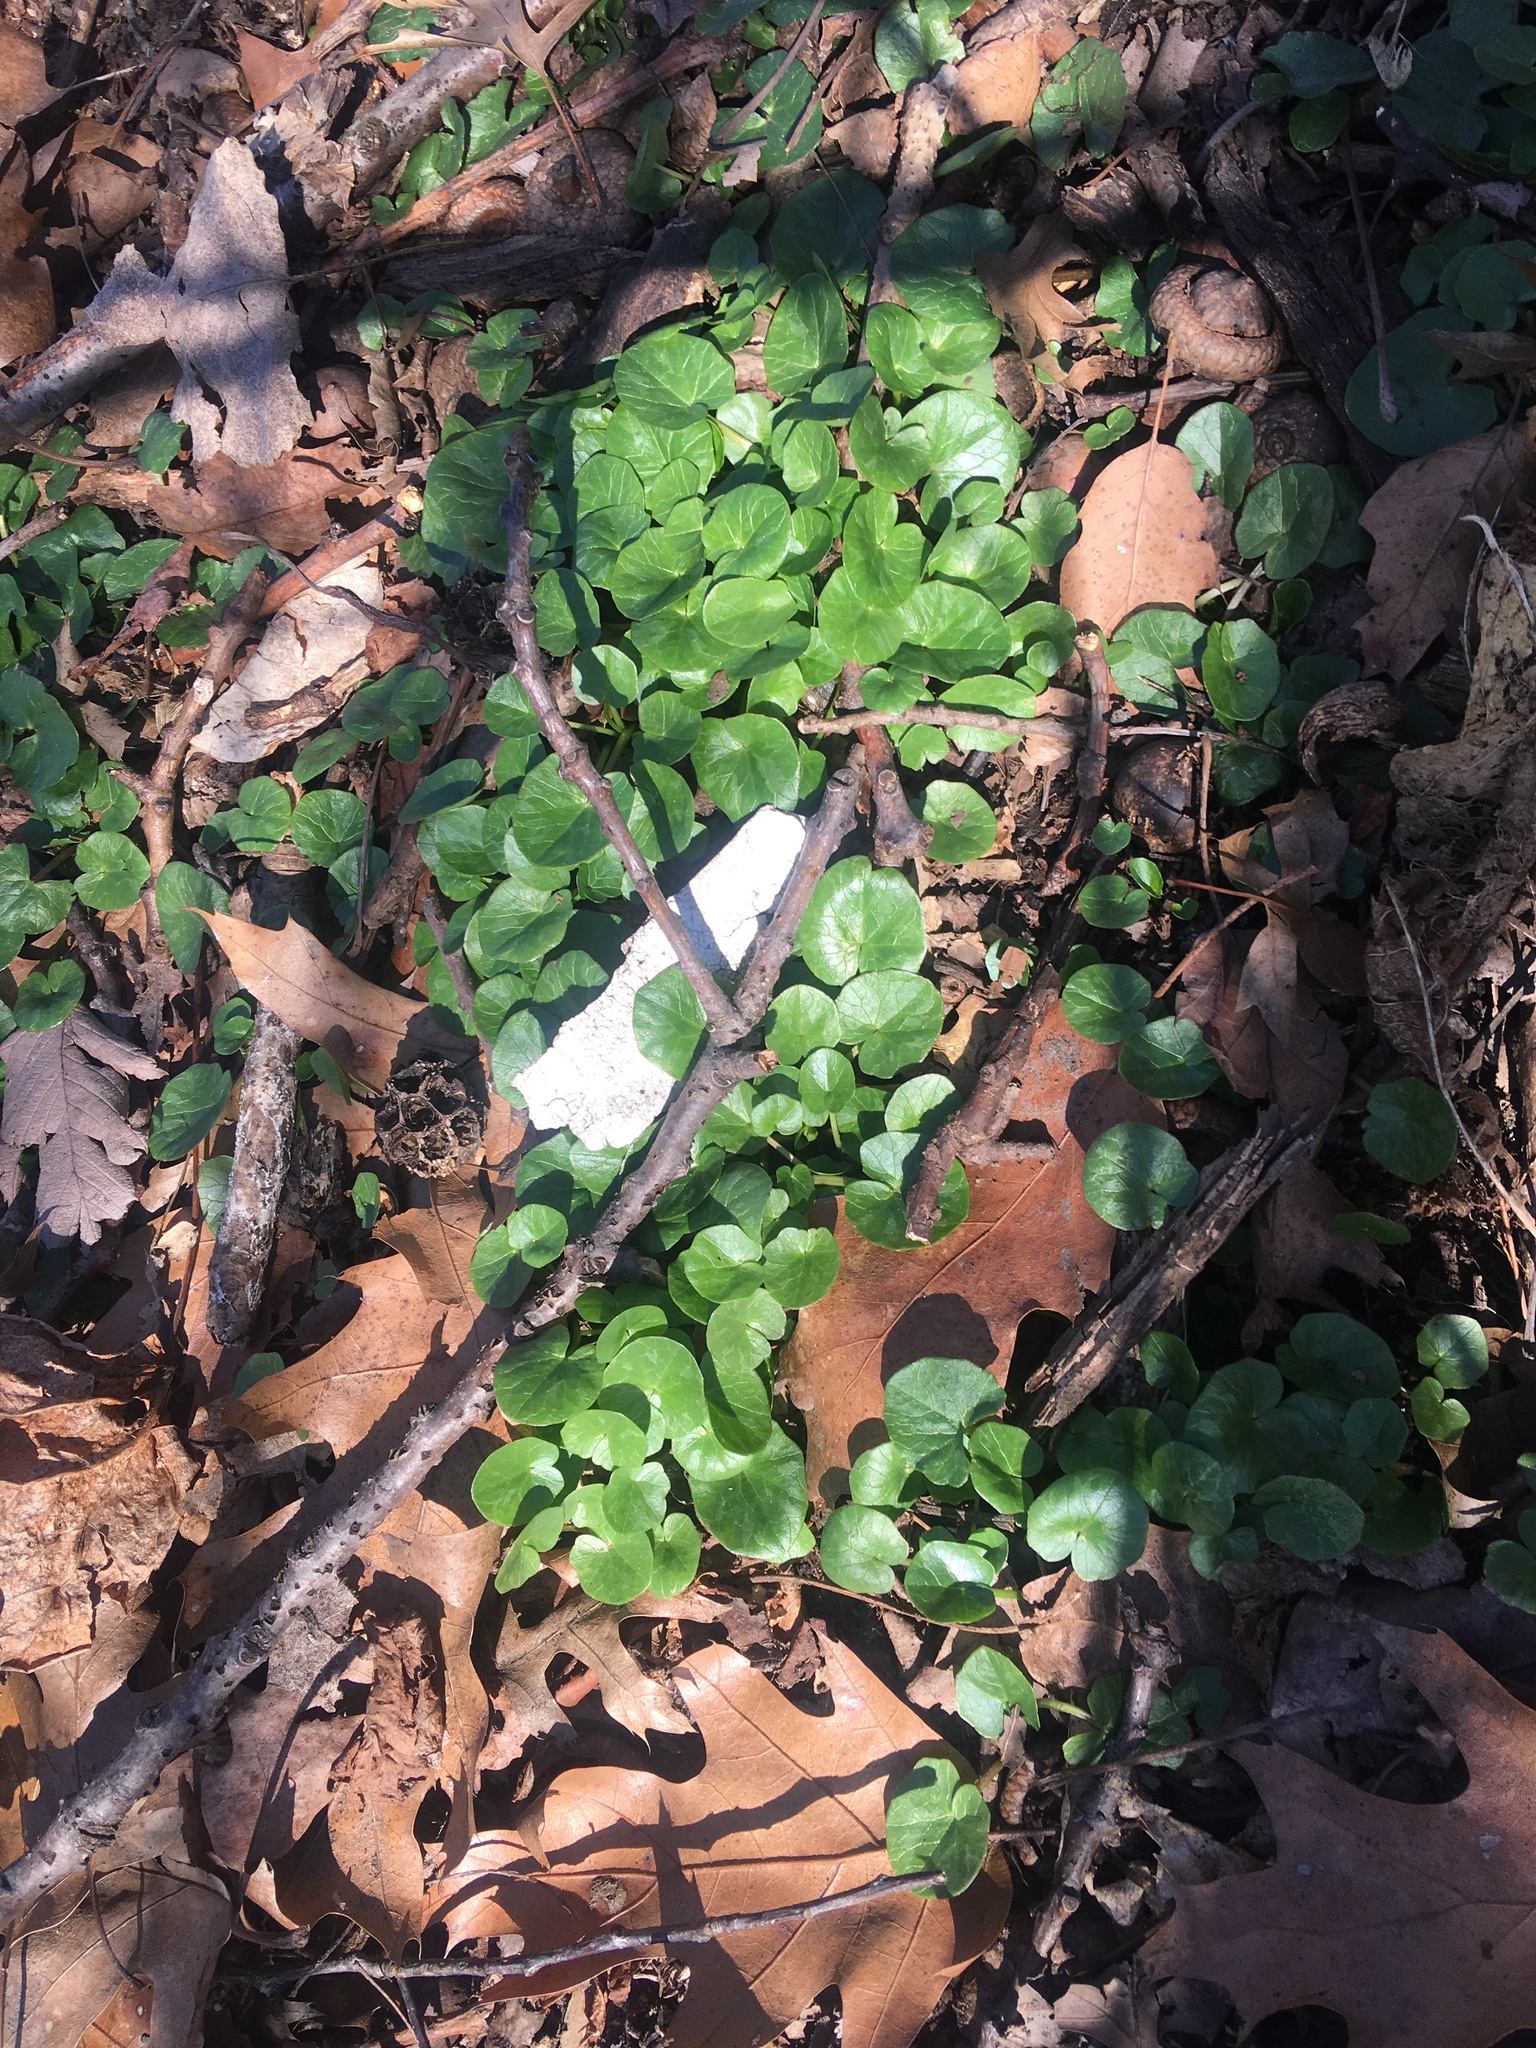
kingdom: Plantae
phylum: Tracheophyta
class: Magnoliopsida
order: Ranunculales
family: Ranunculaceae
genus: Ficaria
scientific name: Ficaria verna
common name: Lesser celandine
